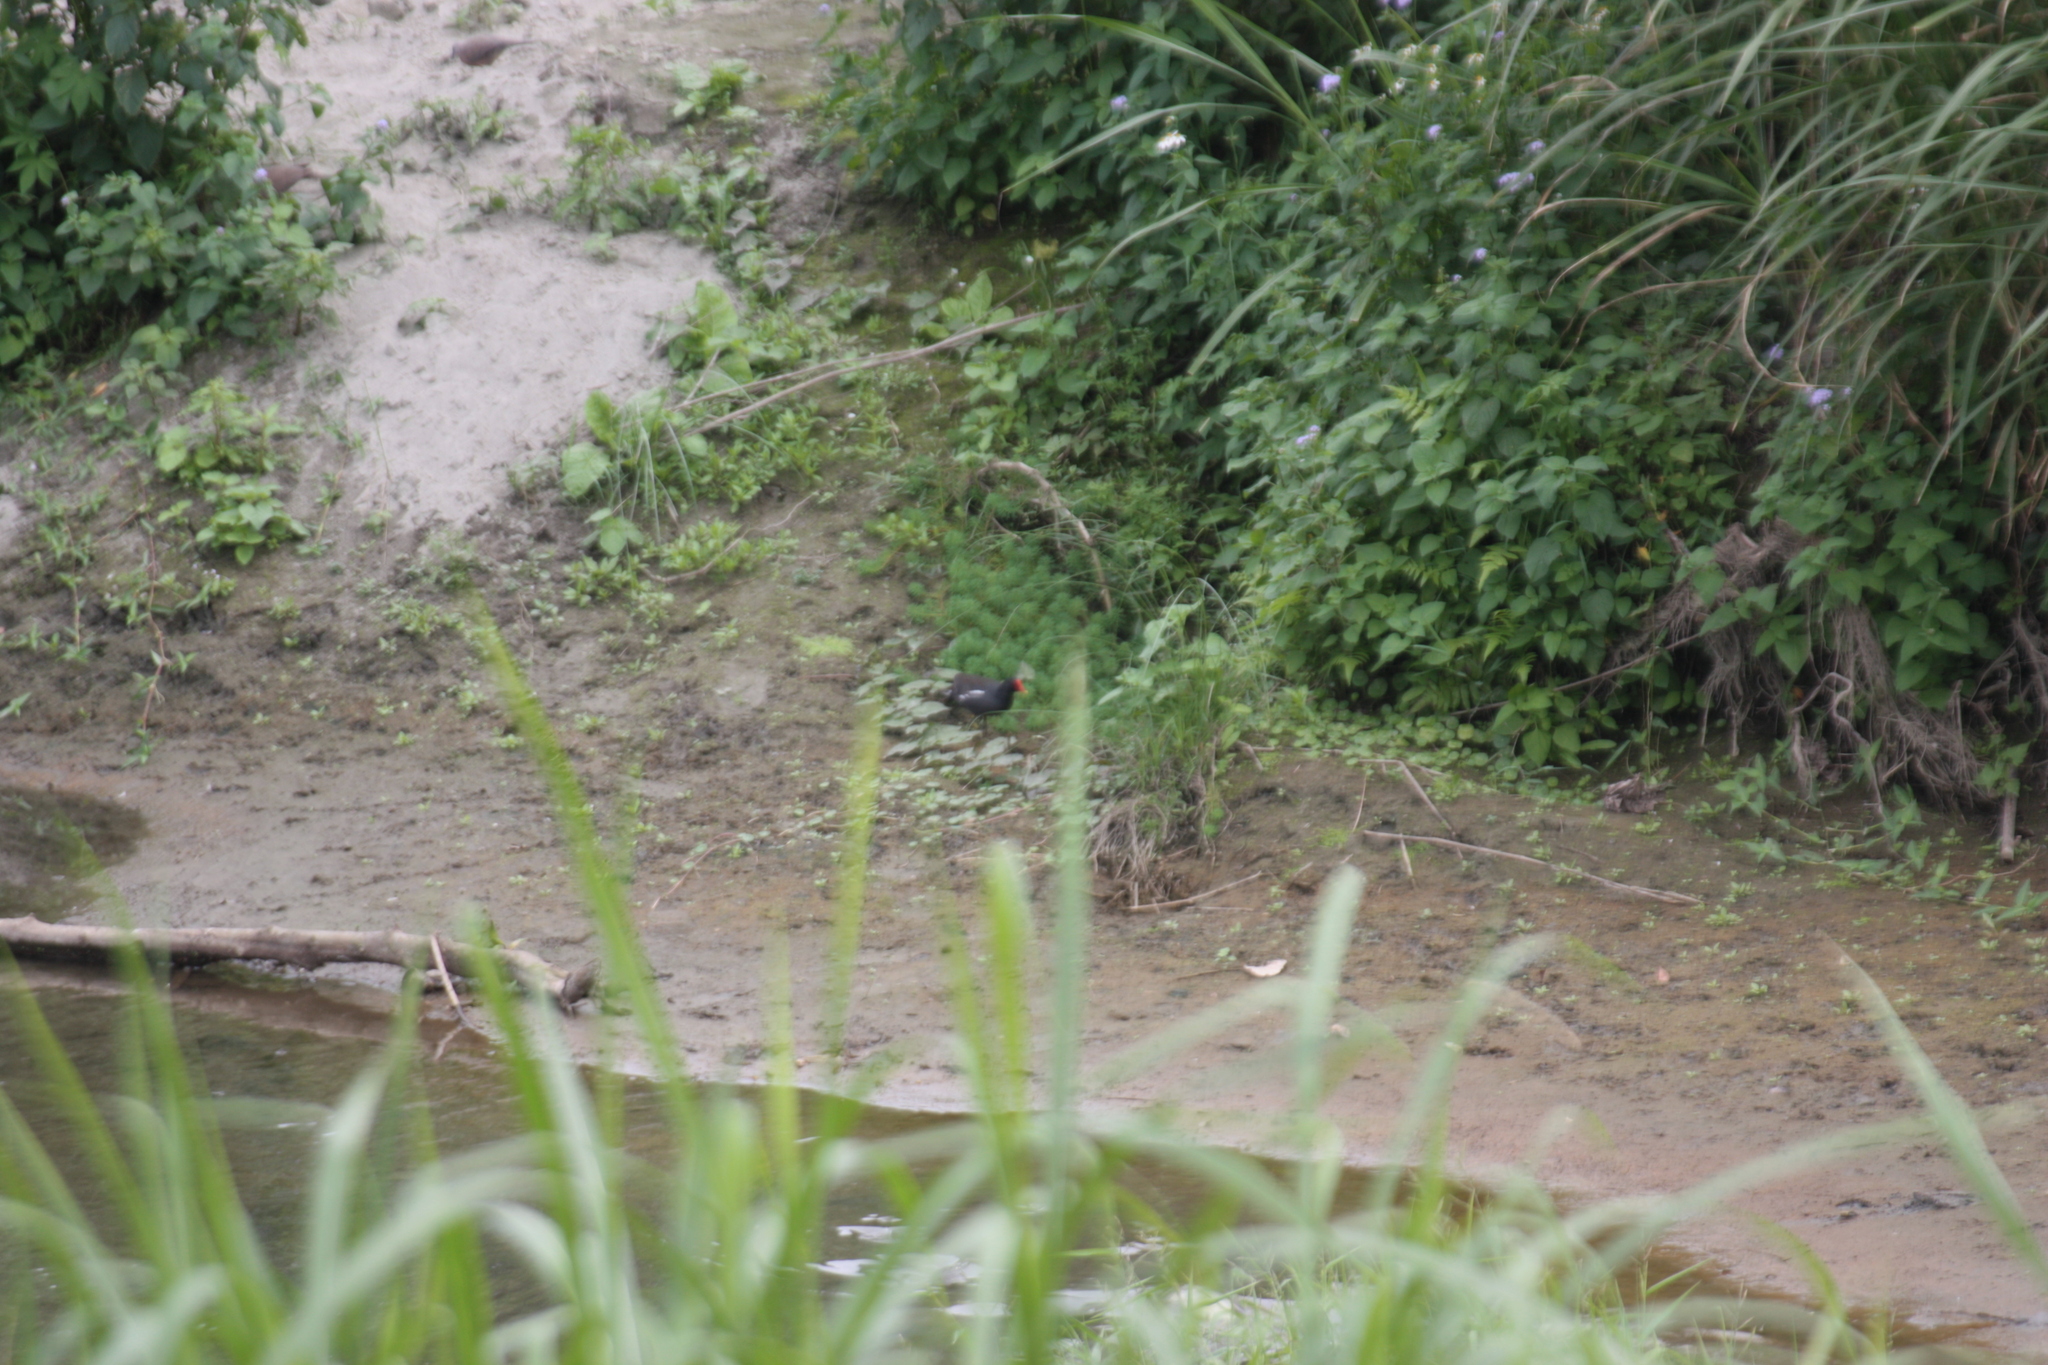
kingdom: Animalia
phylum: Chordata
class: Aves
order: Gruiformes
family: Rallidae
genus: Gallinula
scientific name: Gallinula chloropus
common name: Common moorhen
